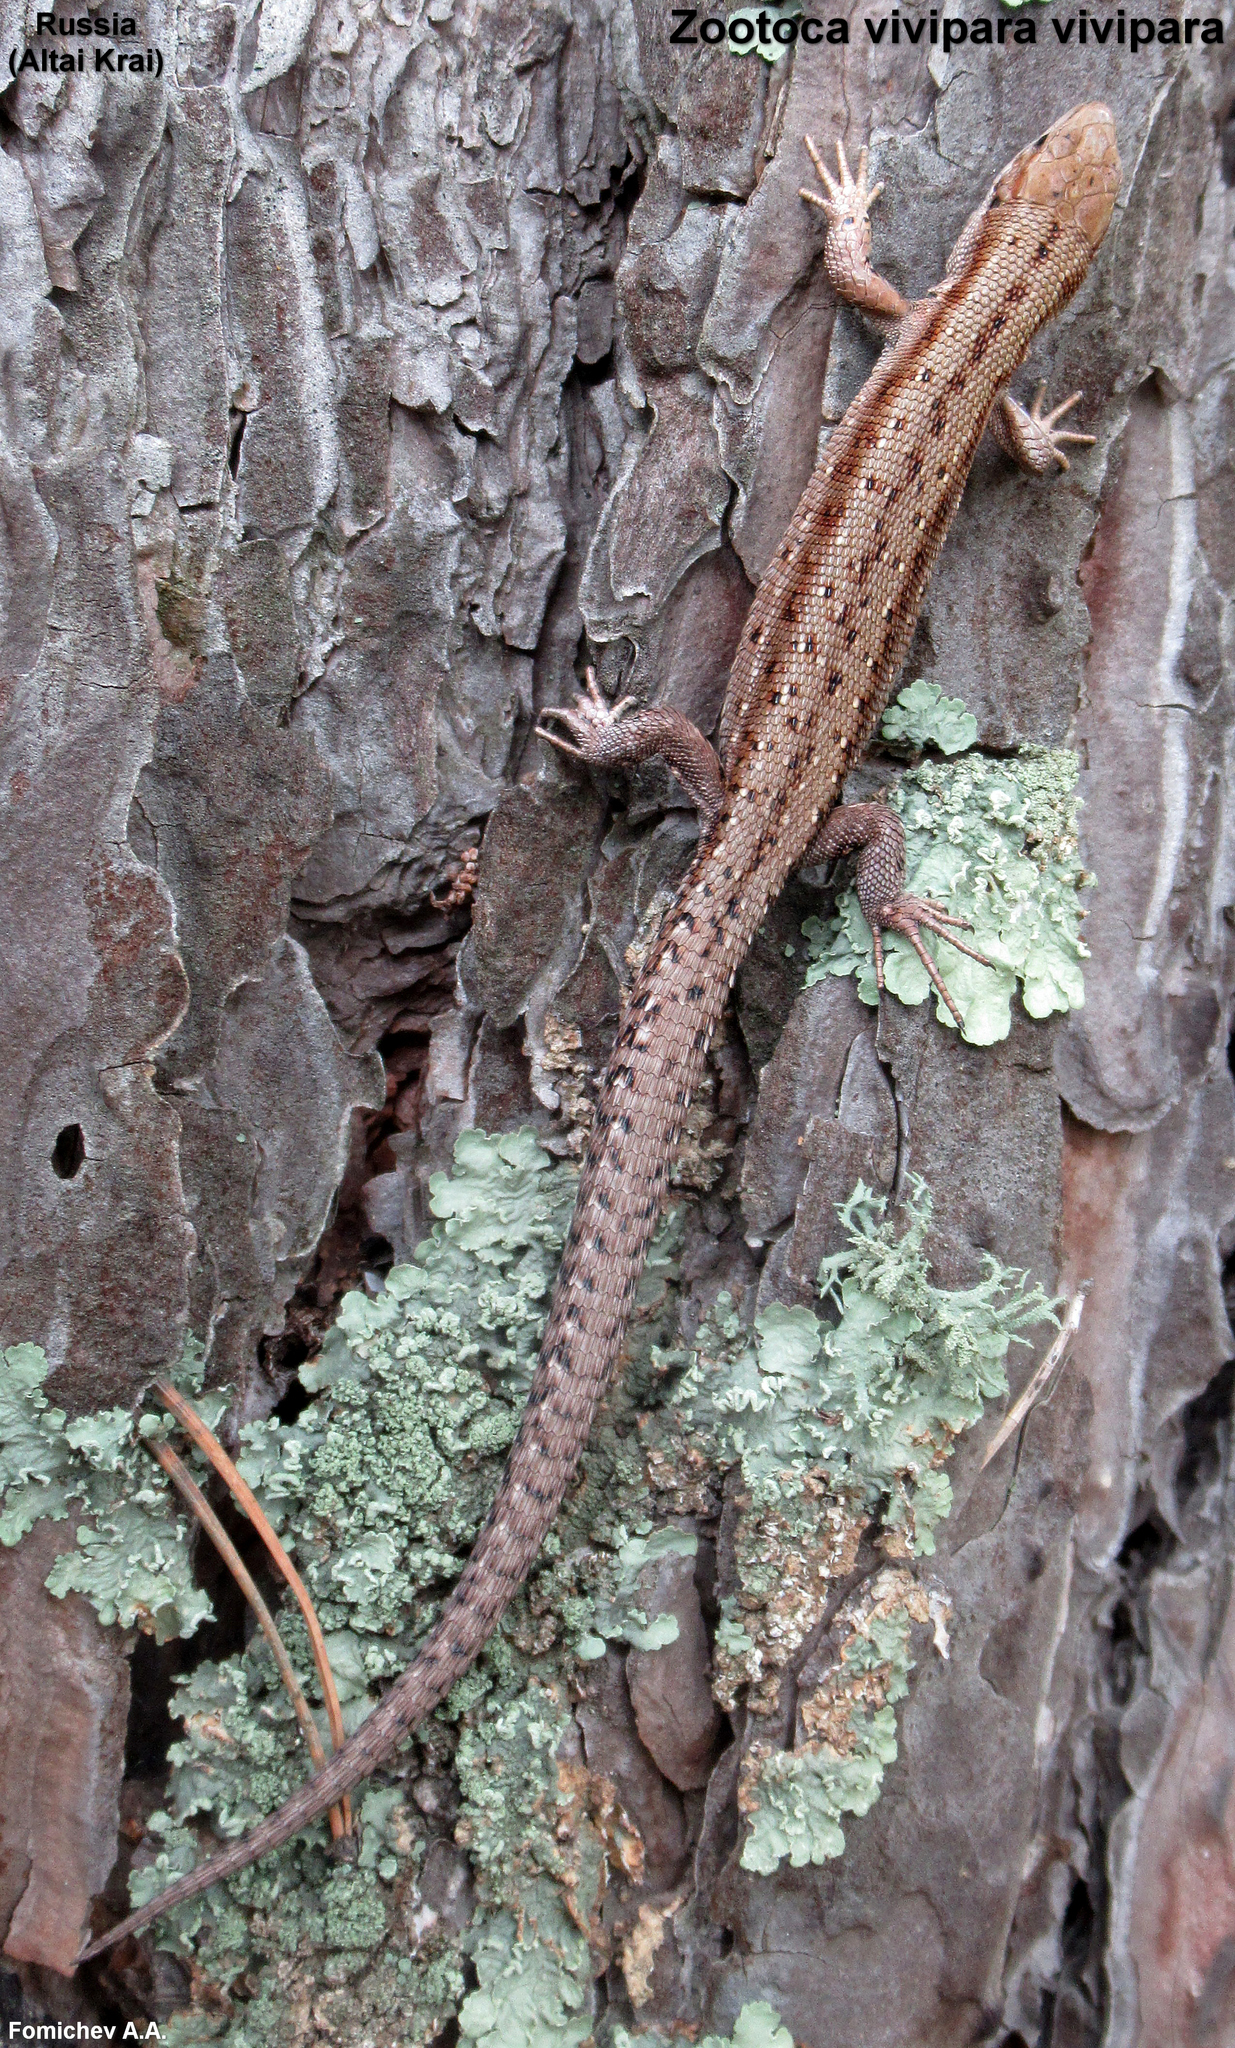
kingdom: Animalia
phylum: Chordata
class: Squamata
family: Lacertidae
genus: Zootoca
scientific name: Zootoca vivipara
